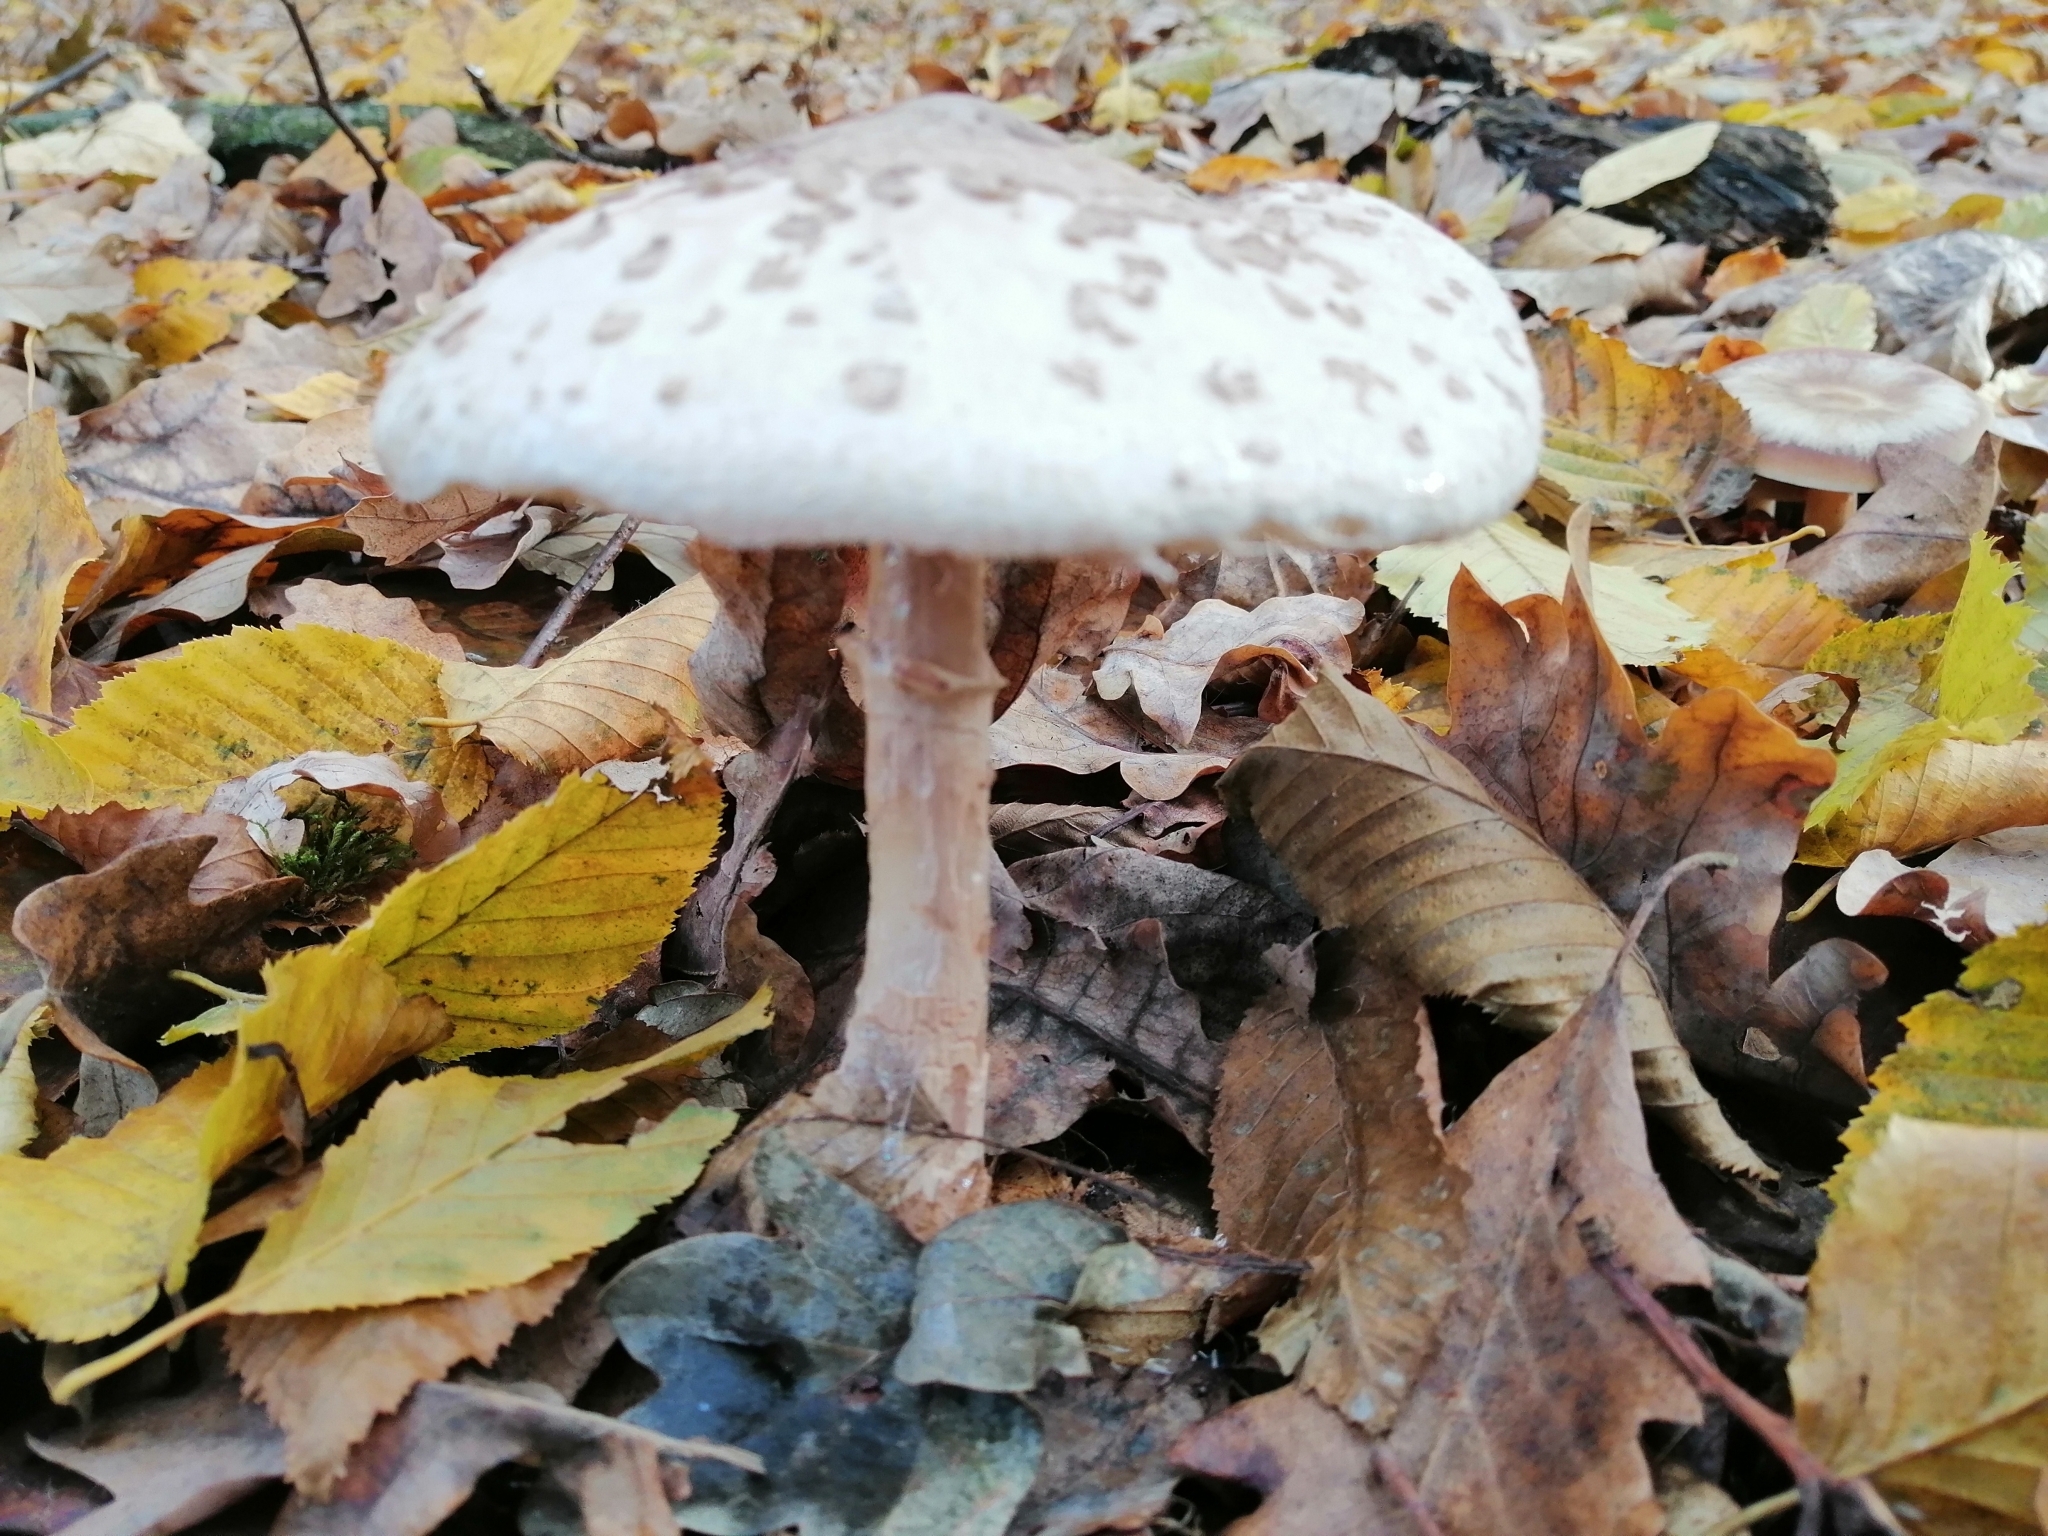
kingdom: Fungi
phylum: Basidiomycota
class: Agaricomycetes
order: Agaricales
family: Agaricaceae
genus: Macrolepiota
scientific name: Macrolepiota mastoidea
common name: Slender parasol
